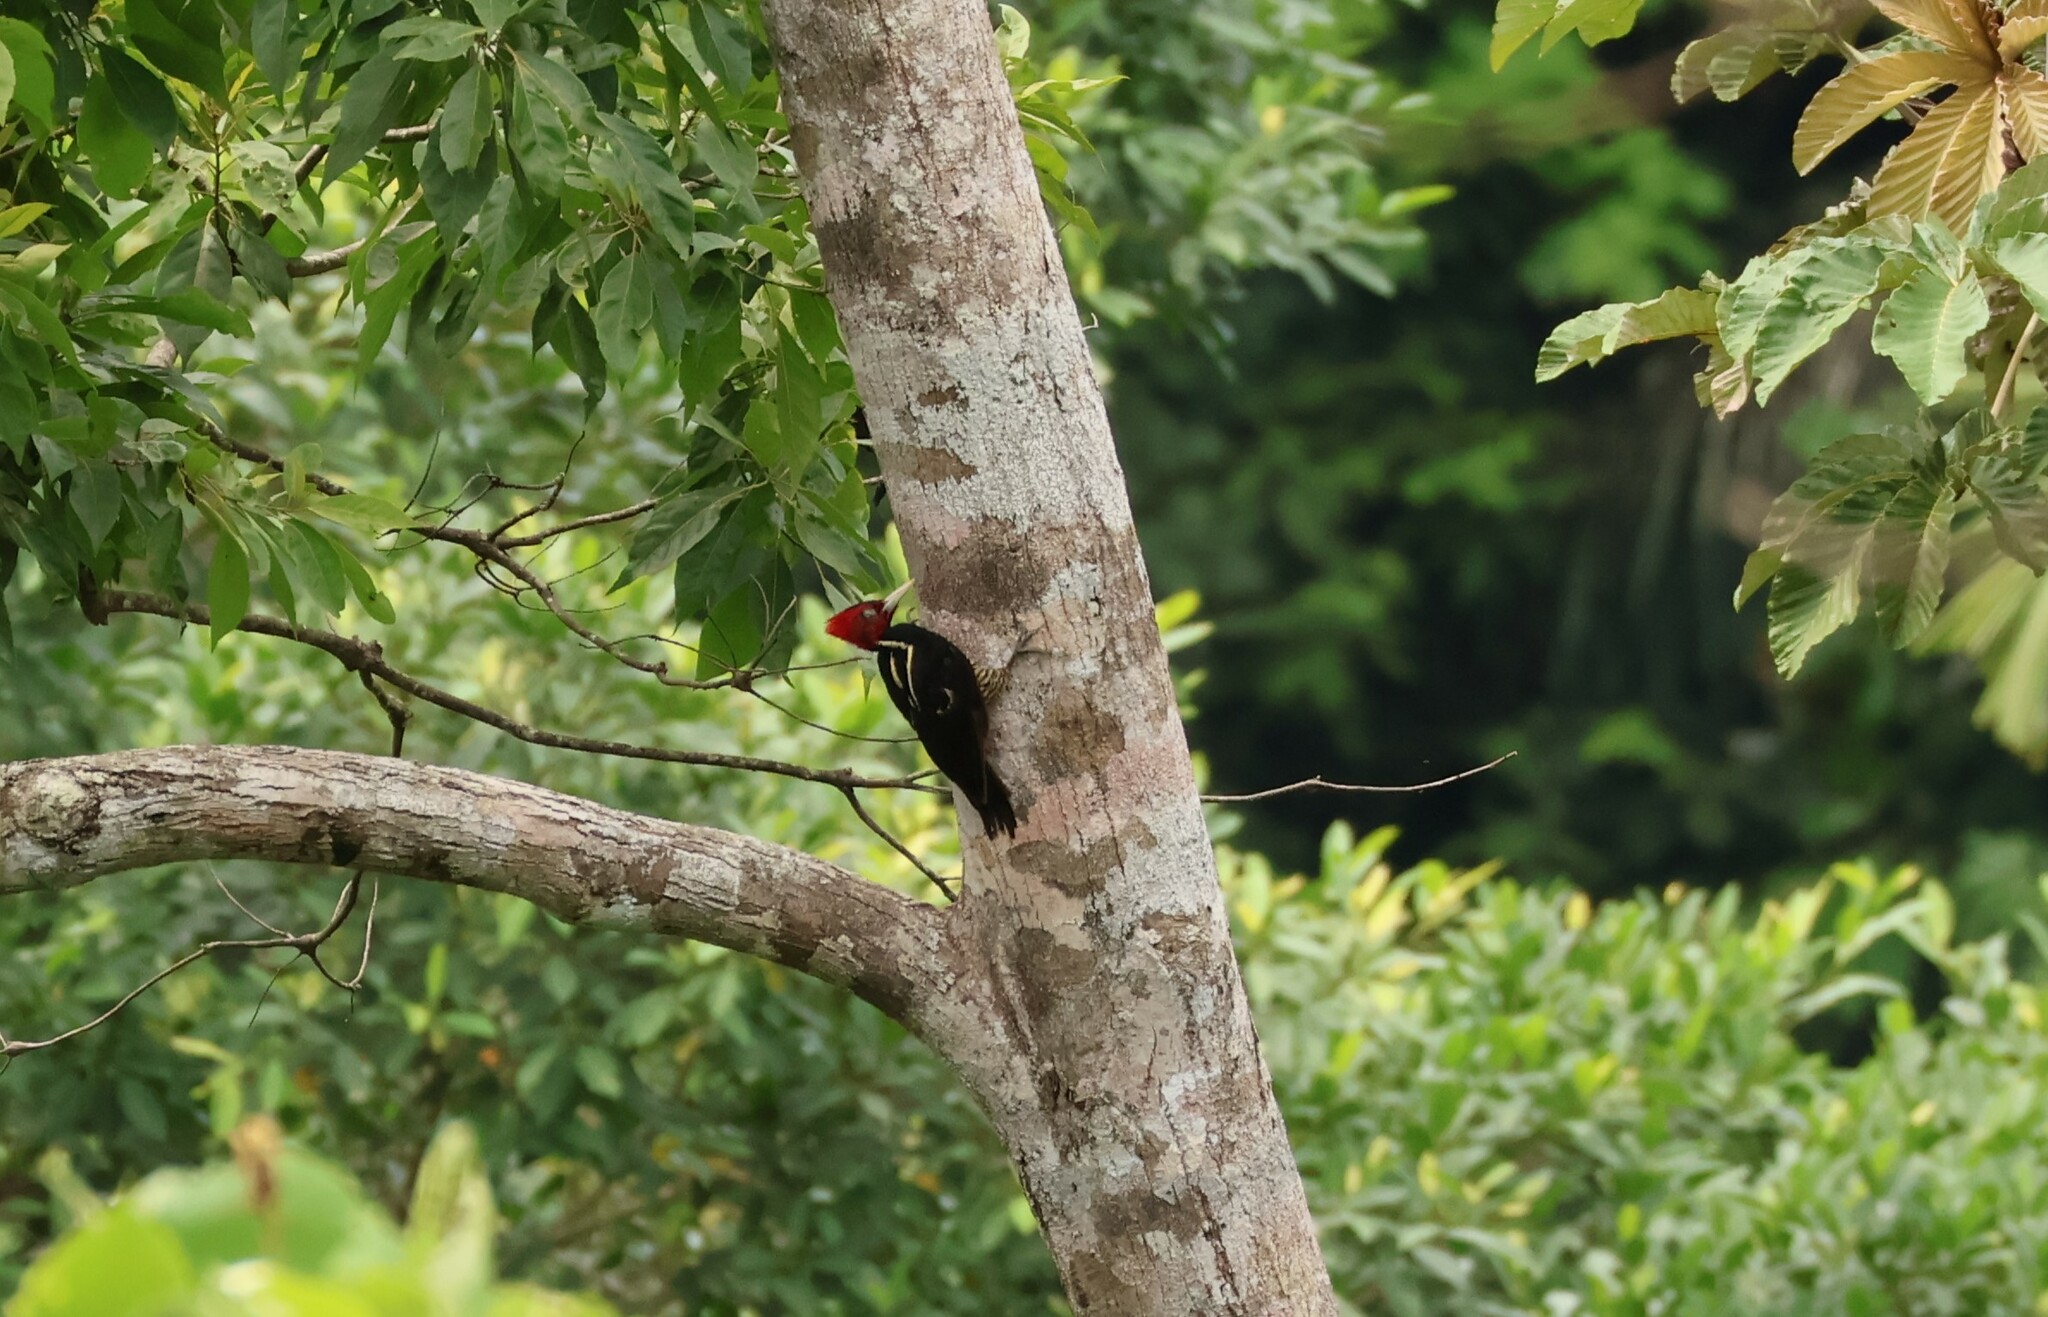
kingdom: Animalia
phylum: Chordata
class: Aves
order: Piciformes
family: Picidae
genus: Campephilus
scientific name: Campephilus guatemalensis
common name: Pale-billed woodpecker
